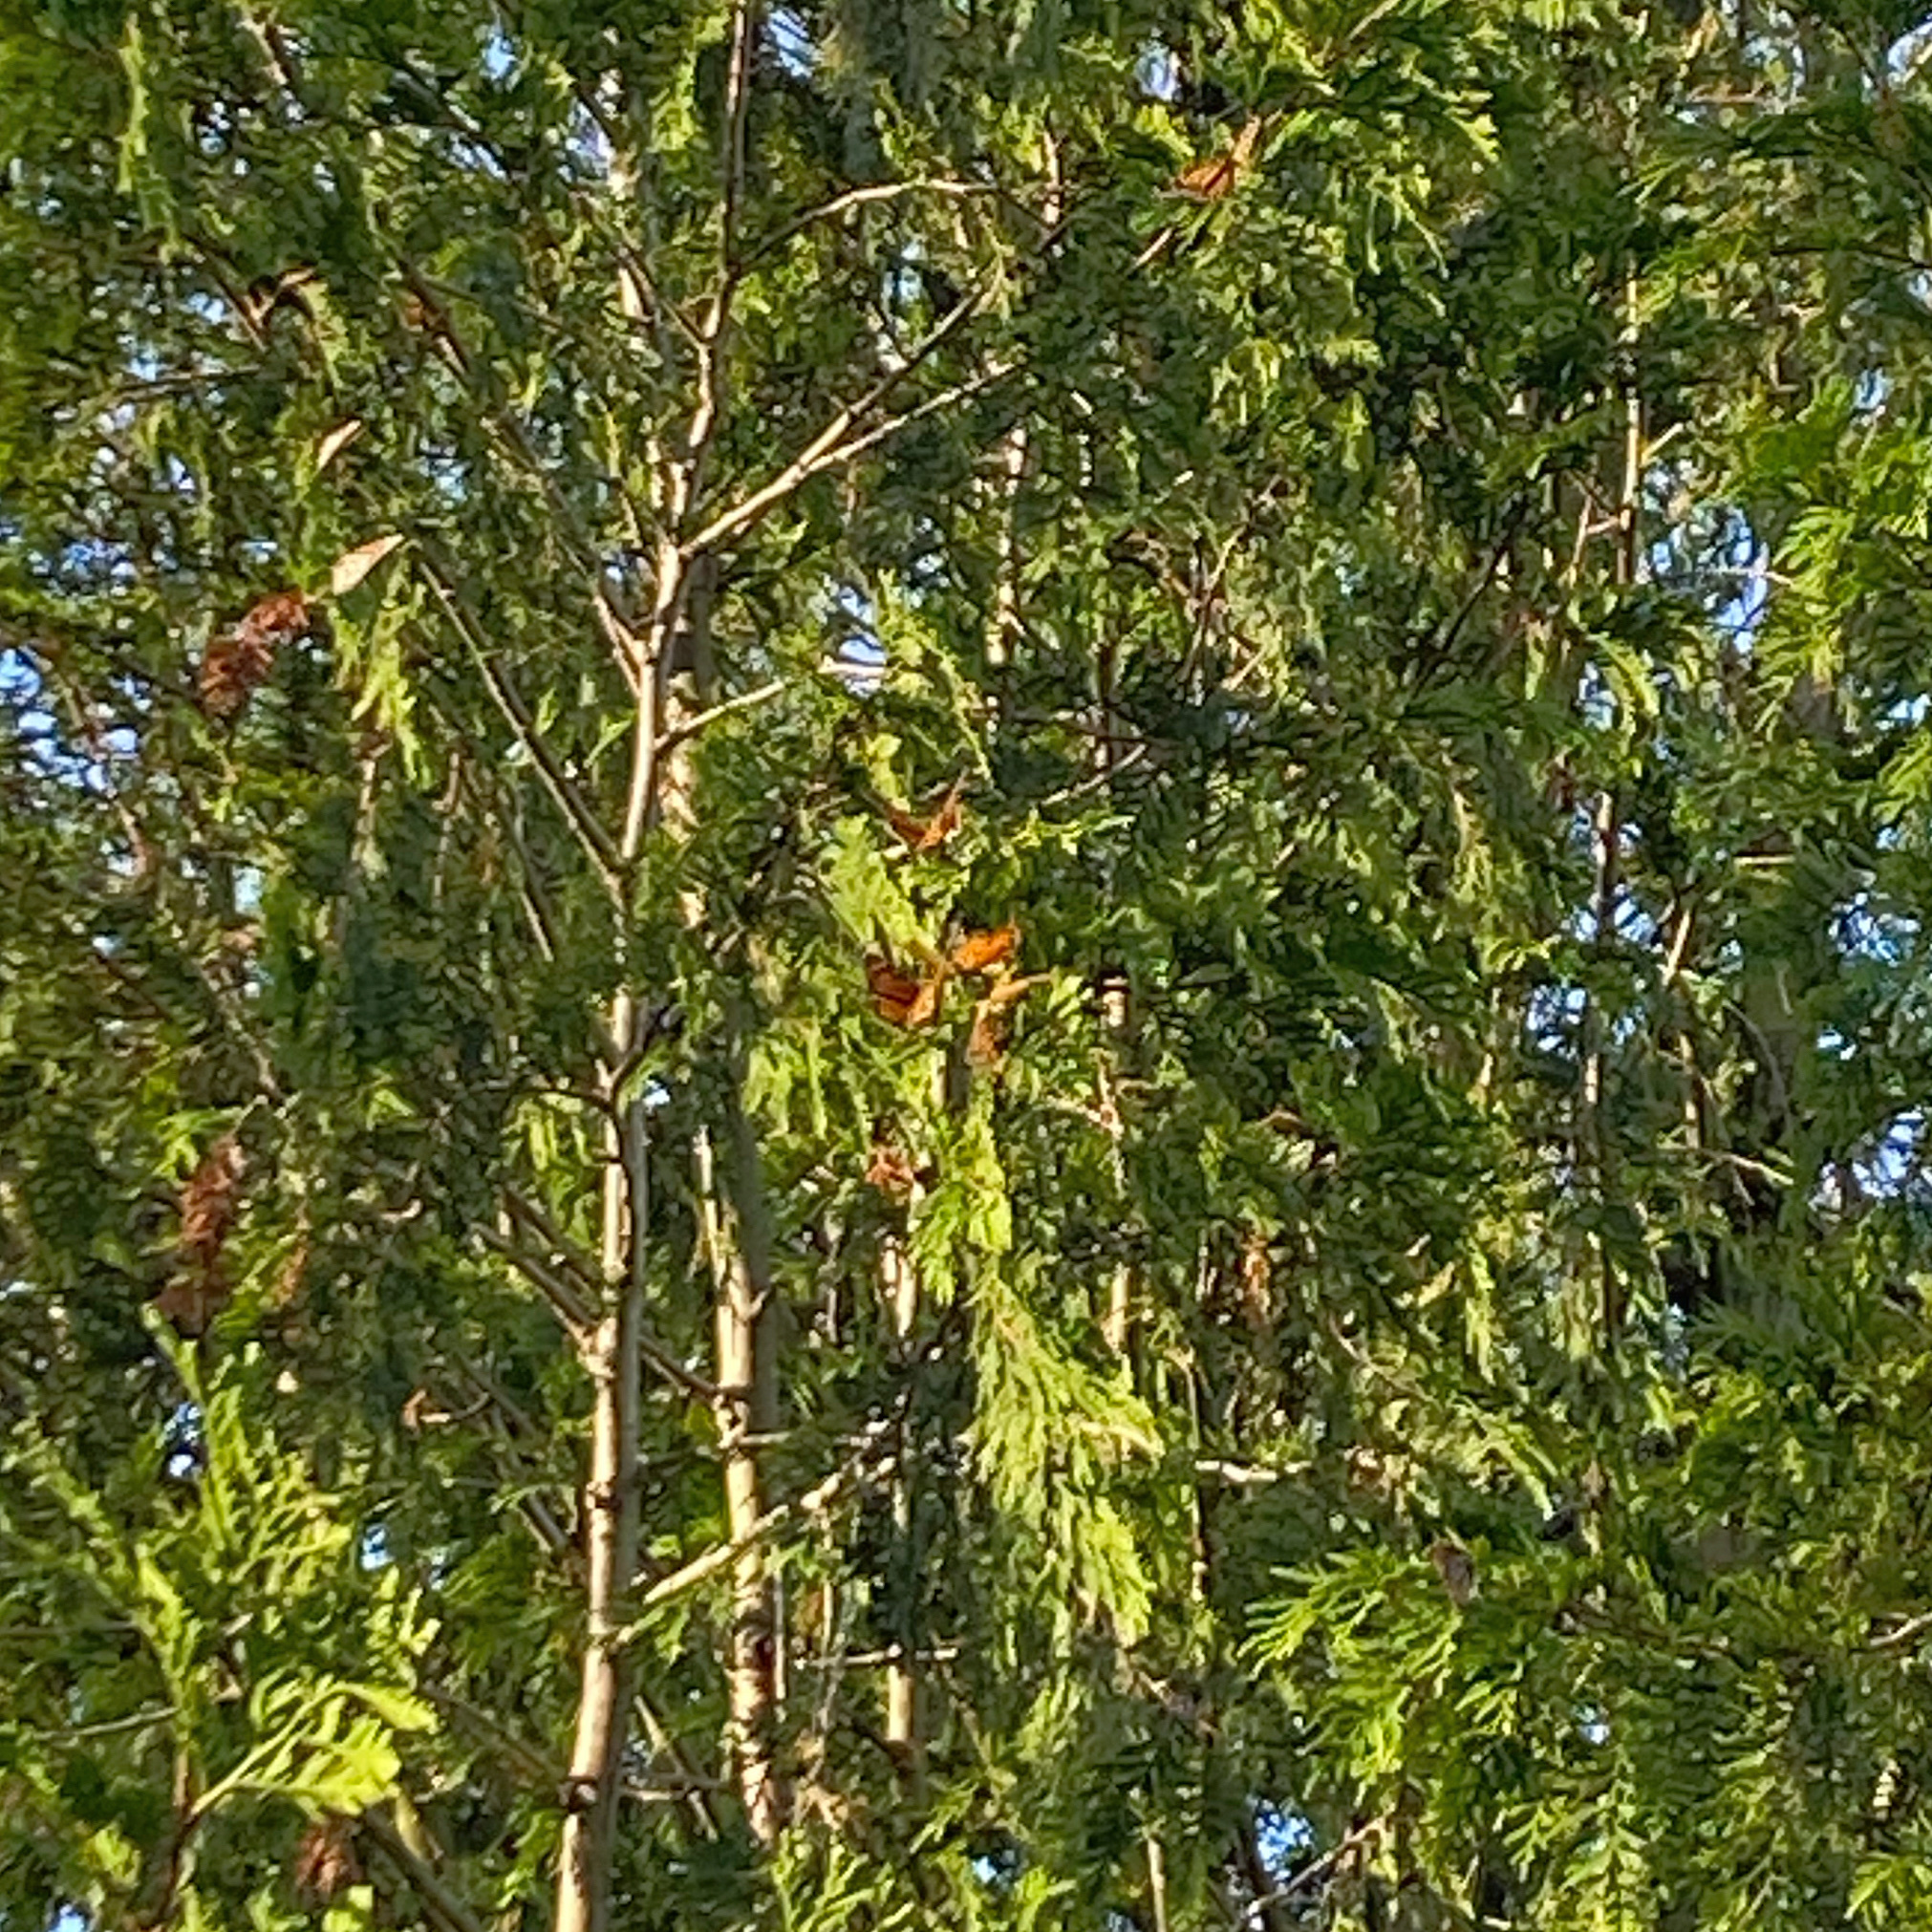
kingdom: Animalia
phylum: Arthropoda
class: Insecta
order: Lepidoptera
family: Nymphalidae
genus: Danaus
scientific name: Danaus plexippus
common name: Monarch
